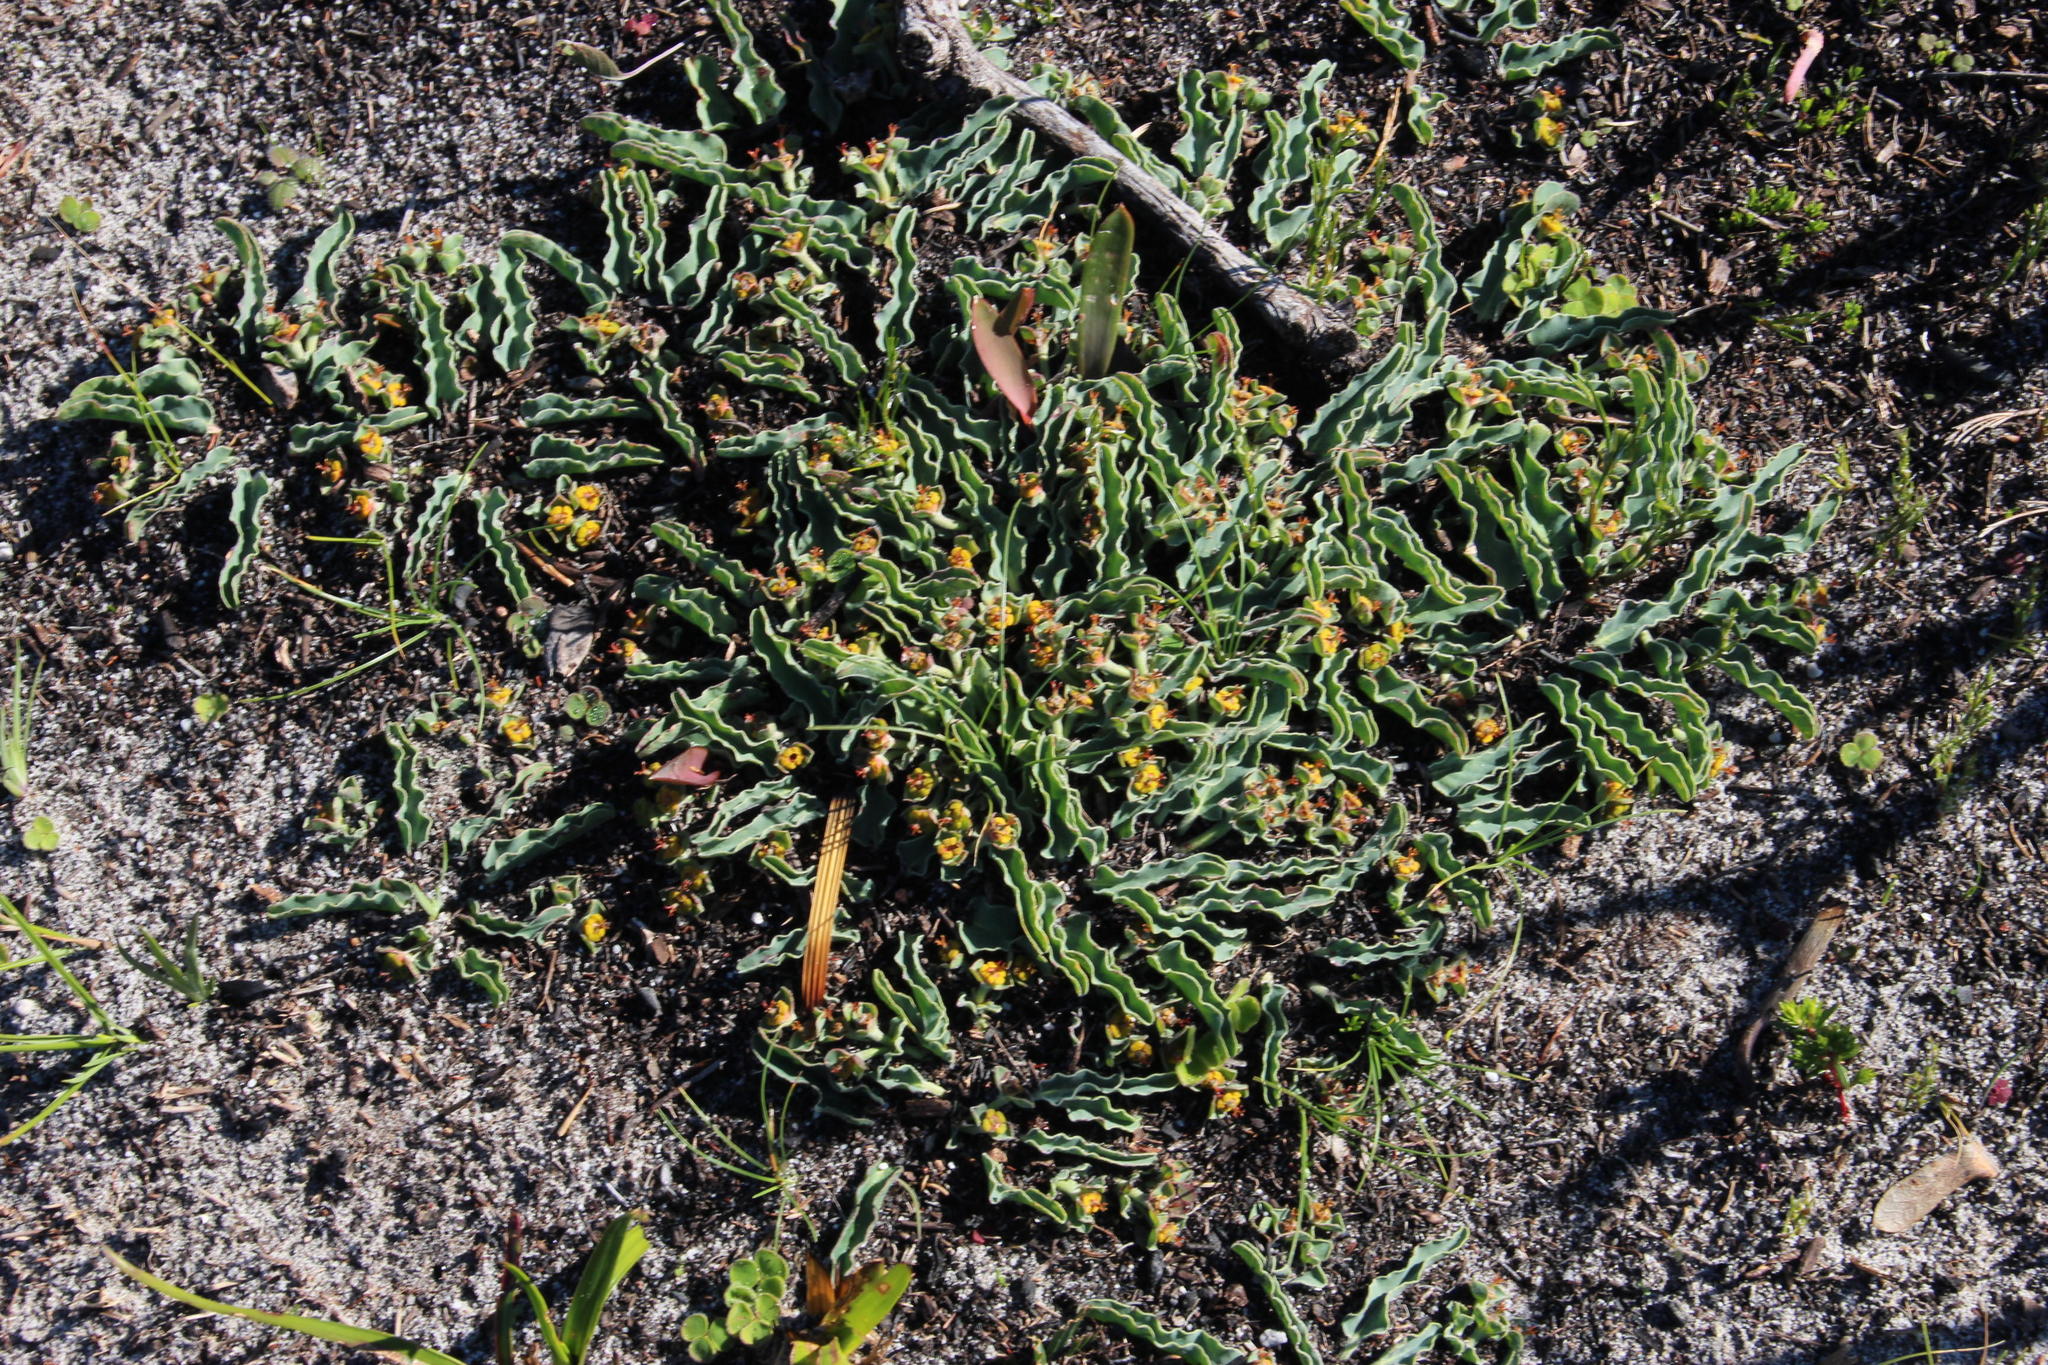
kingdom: Plantae
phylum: Tracheophyta
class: Magnoliopsida
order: Malpighiales
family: Euphorbiaceae
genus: Euphorbia
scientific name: Euphorbia tuberosa
